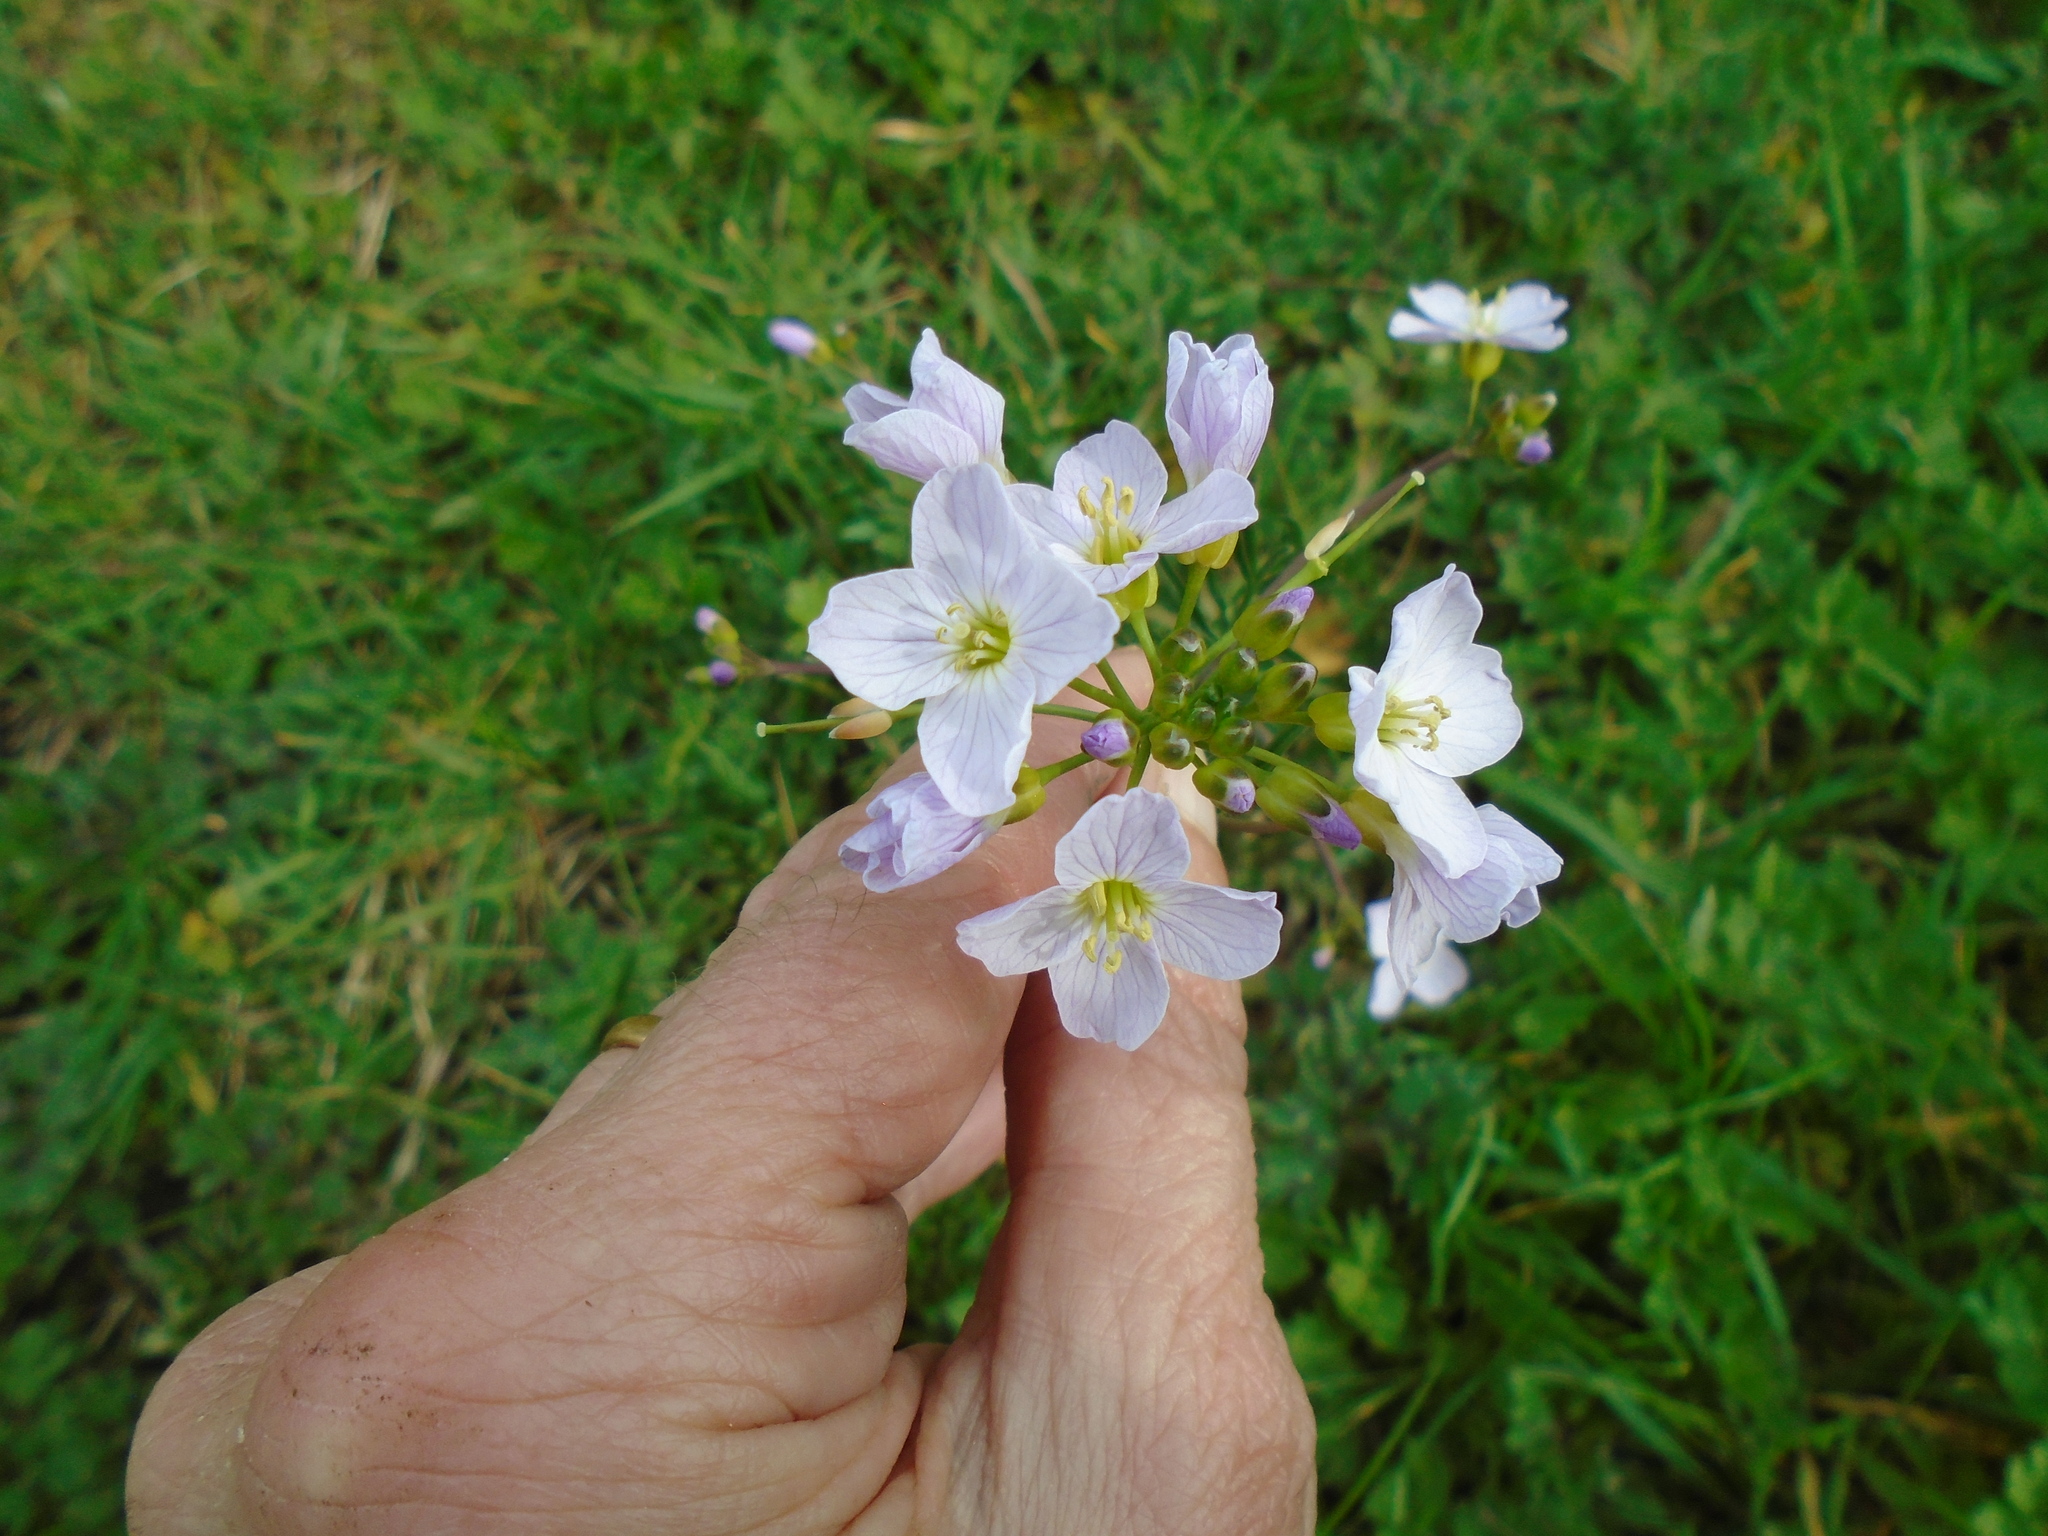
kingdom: Plantae
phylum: Tracheophyta
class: Magnoliopsida
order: Brassicales
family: Brassicaceae
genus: Cardamine
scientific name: Cardamine pratensis
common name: Cuckoo flower
